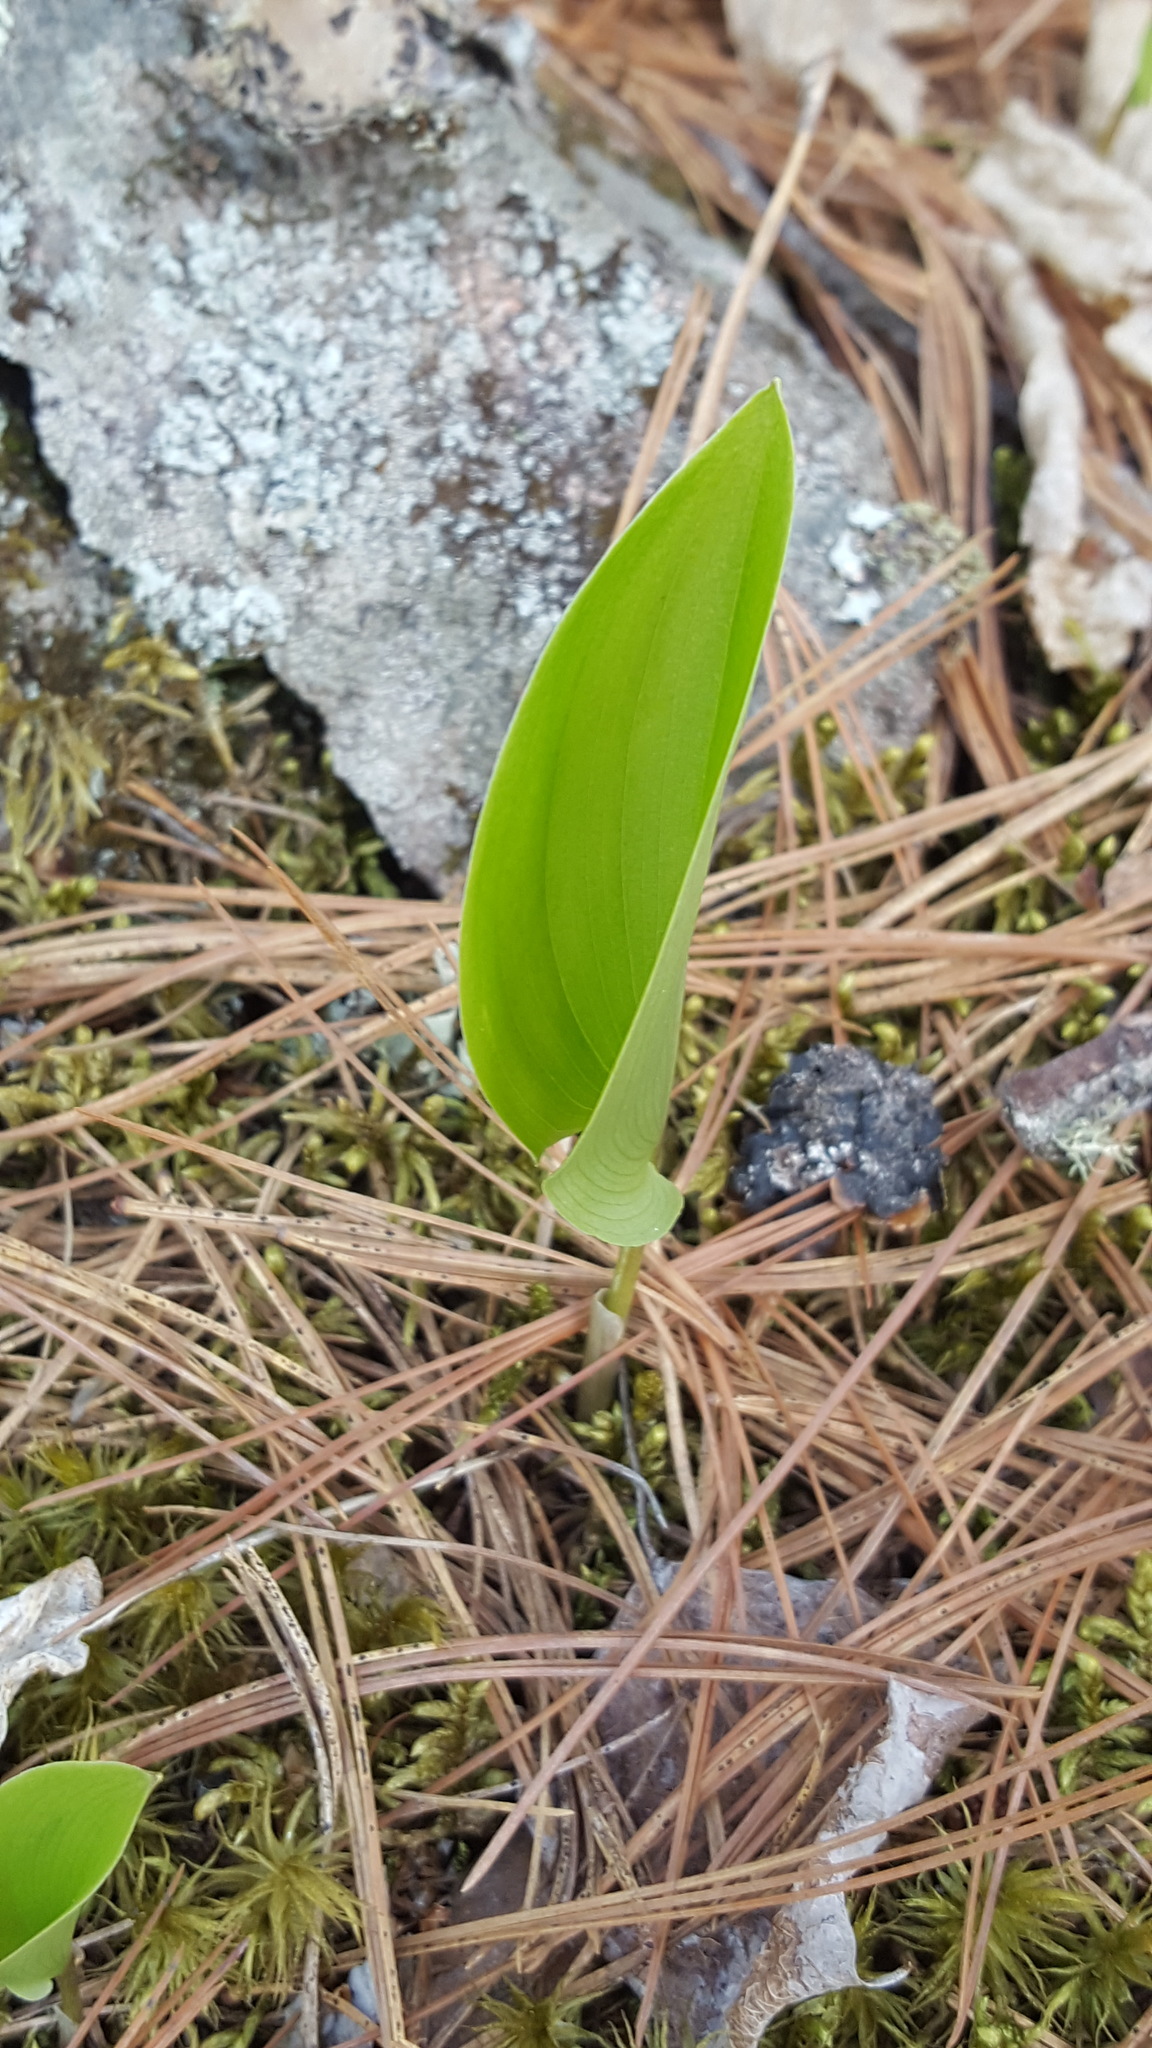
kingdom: Plantae
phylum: Tracheophyta
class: Liliopsida
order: Asparagales
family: Asparagaceae
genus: Maianthemum
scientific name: Maianthemum canadense
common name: False lily-of-the-valley
